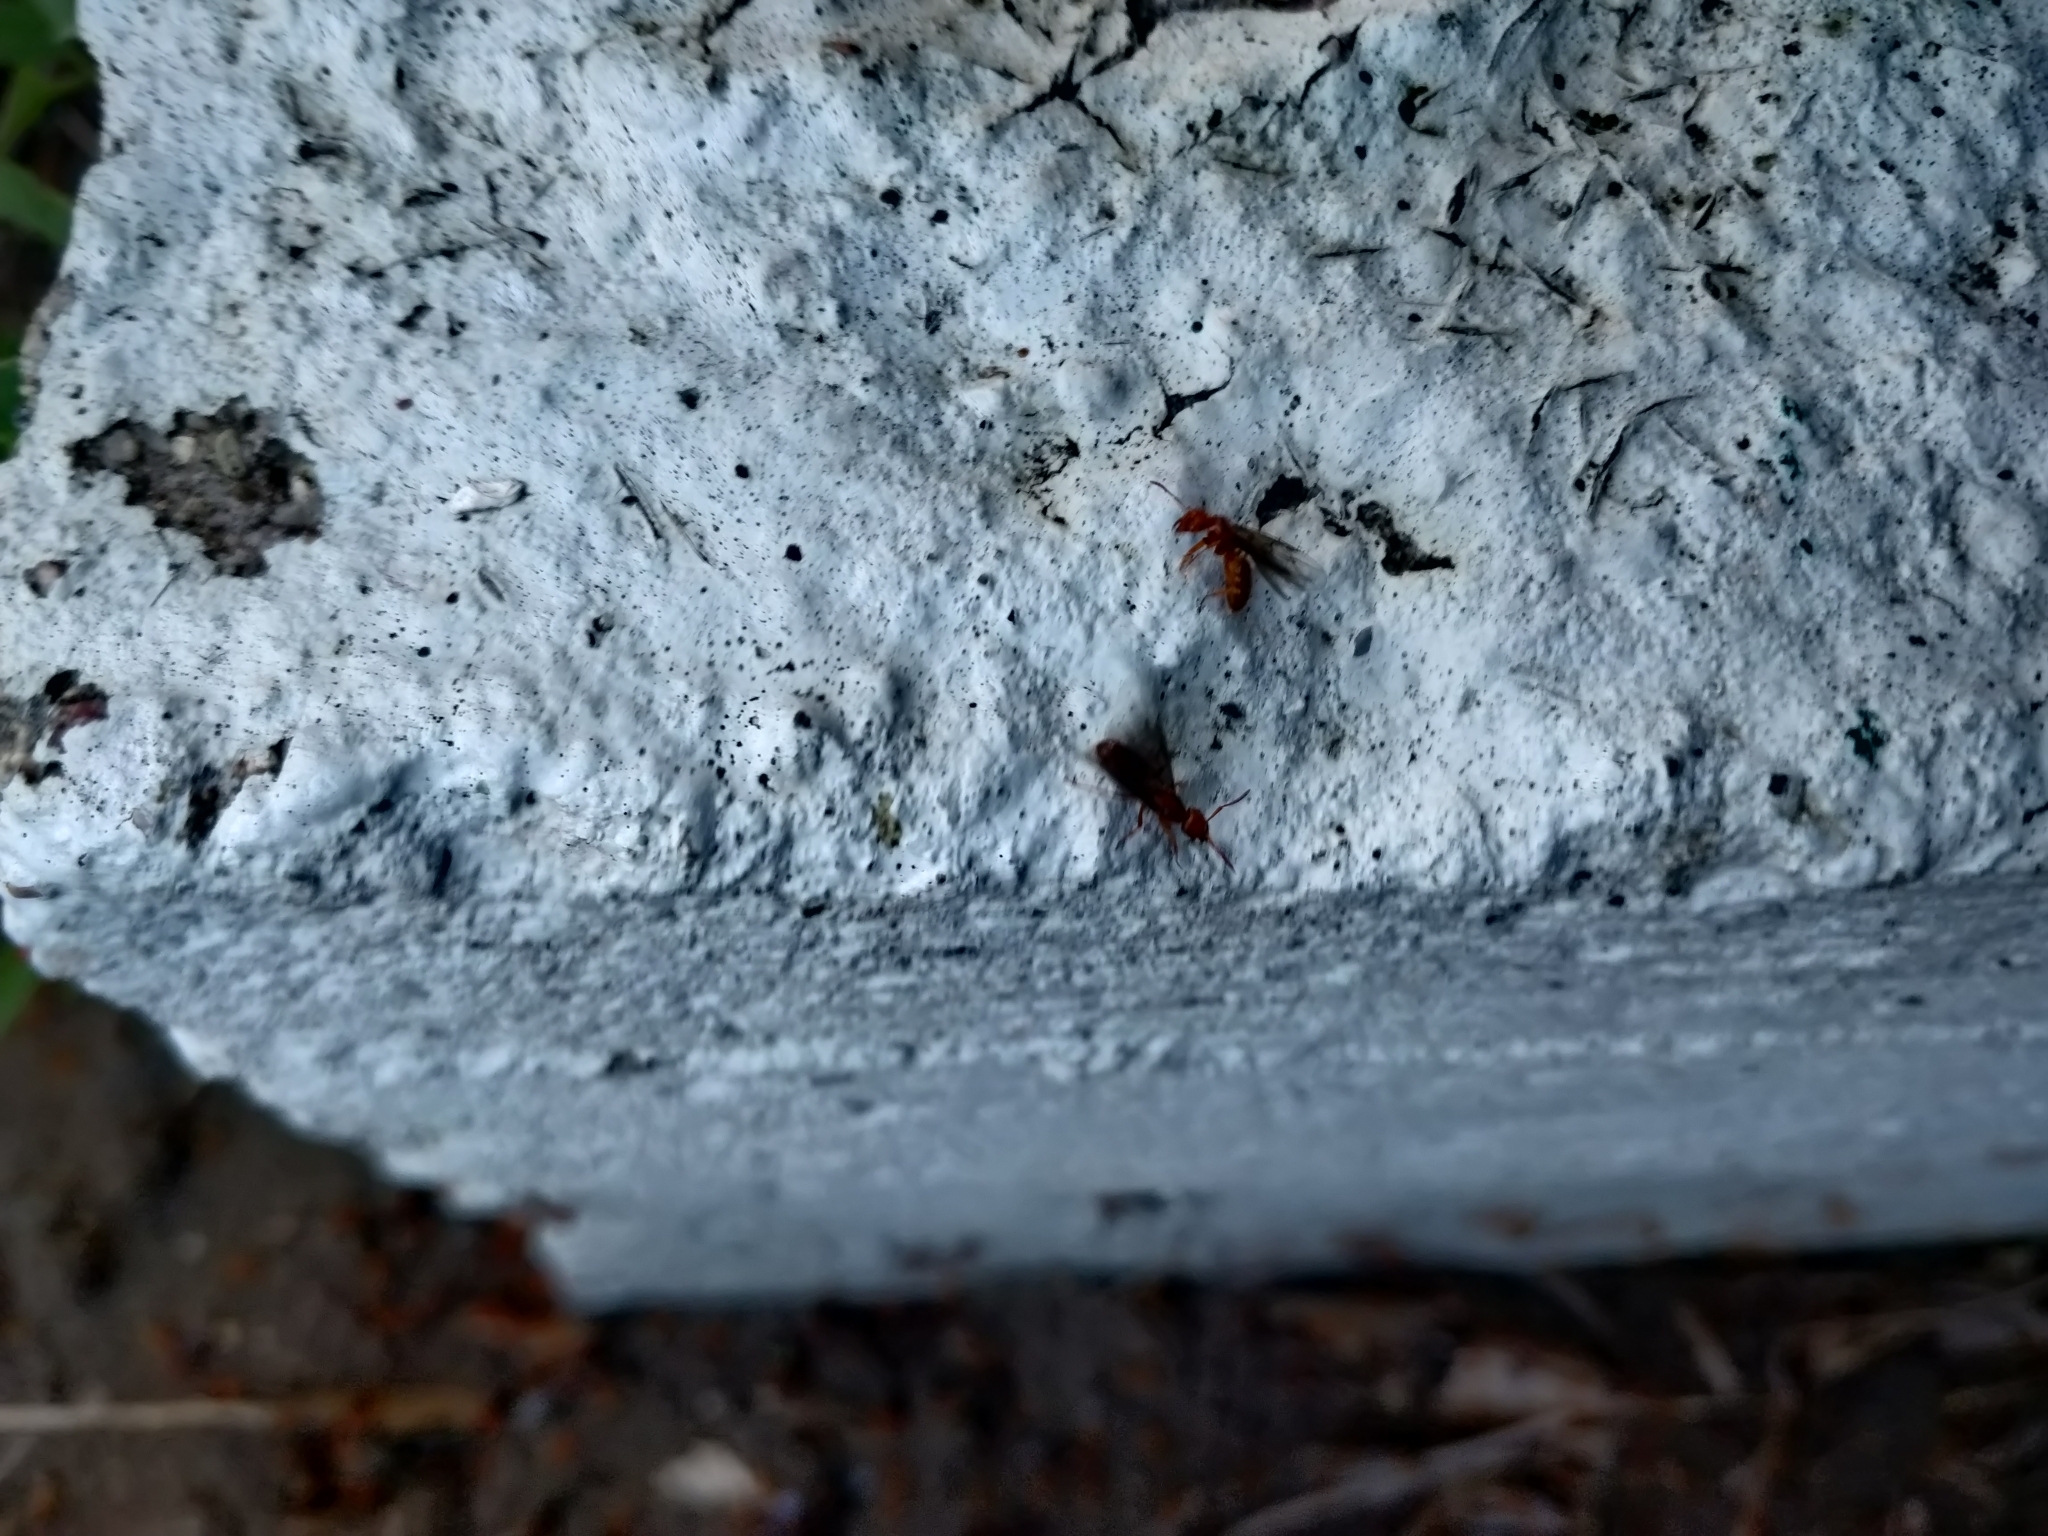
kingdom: Animalia
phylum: Arthropoda
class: Insecta
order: Hymenoptera
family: Formicidae
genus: Acanthomyops
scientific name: Acanthomyops interjectus
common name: Larger yellow ant
